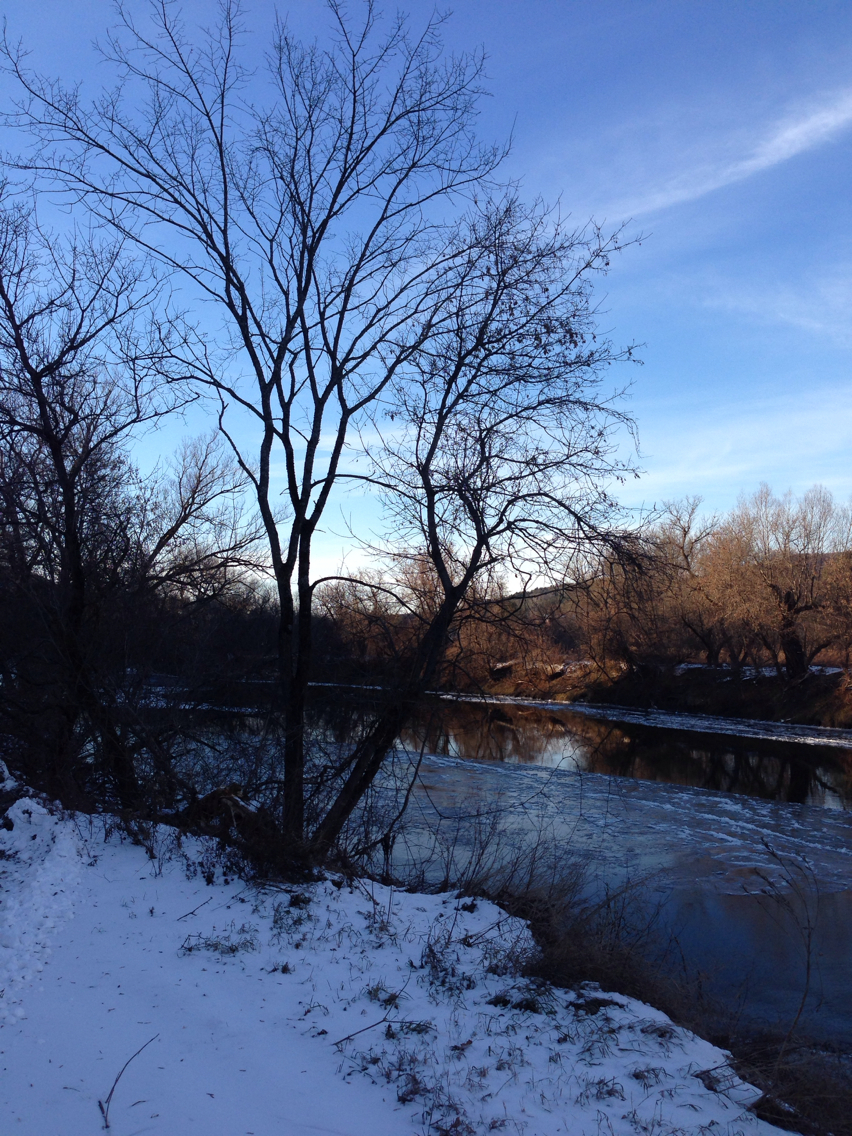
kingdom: Plantae
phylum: Tracheophyta
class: Magnoliopsida
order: Sapindales
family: Sapindaceae
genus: Acer
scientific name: Acer negundo
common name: Ashleaf maple
